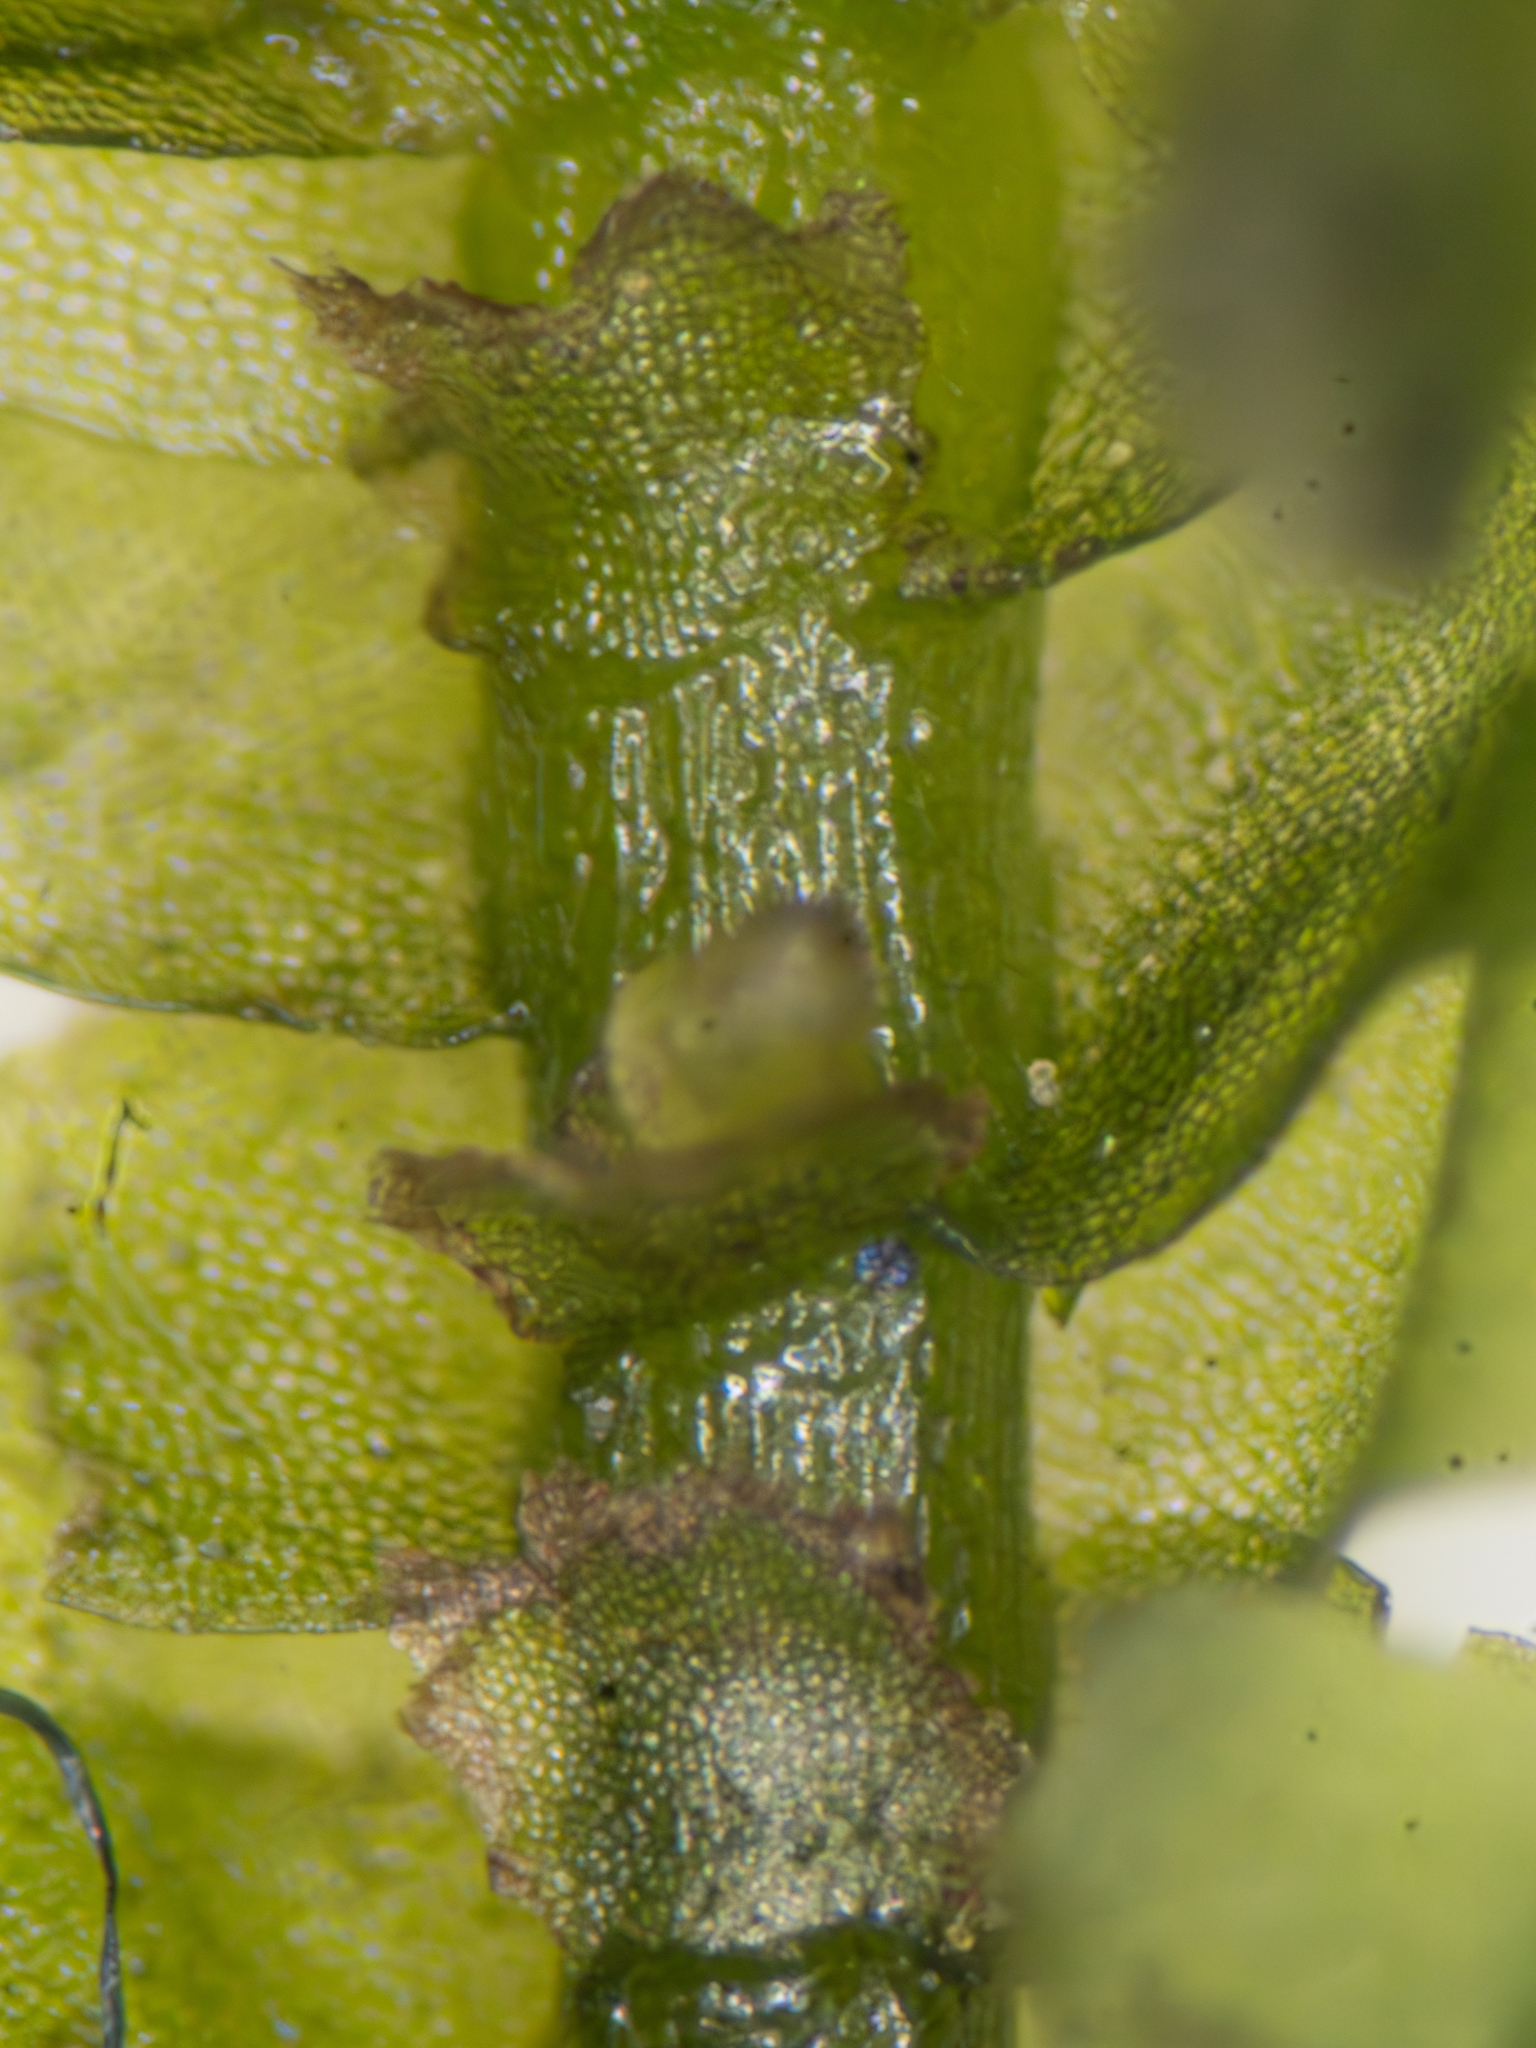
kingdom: Plantae
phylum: Marchantiophyta
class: Jungermanniopsida
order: Jungermanniales
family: Lepidoziaceae
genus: Bazzania
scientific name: Bazzania trilobata
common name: Three-lobed whipwort
